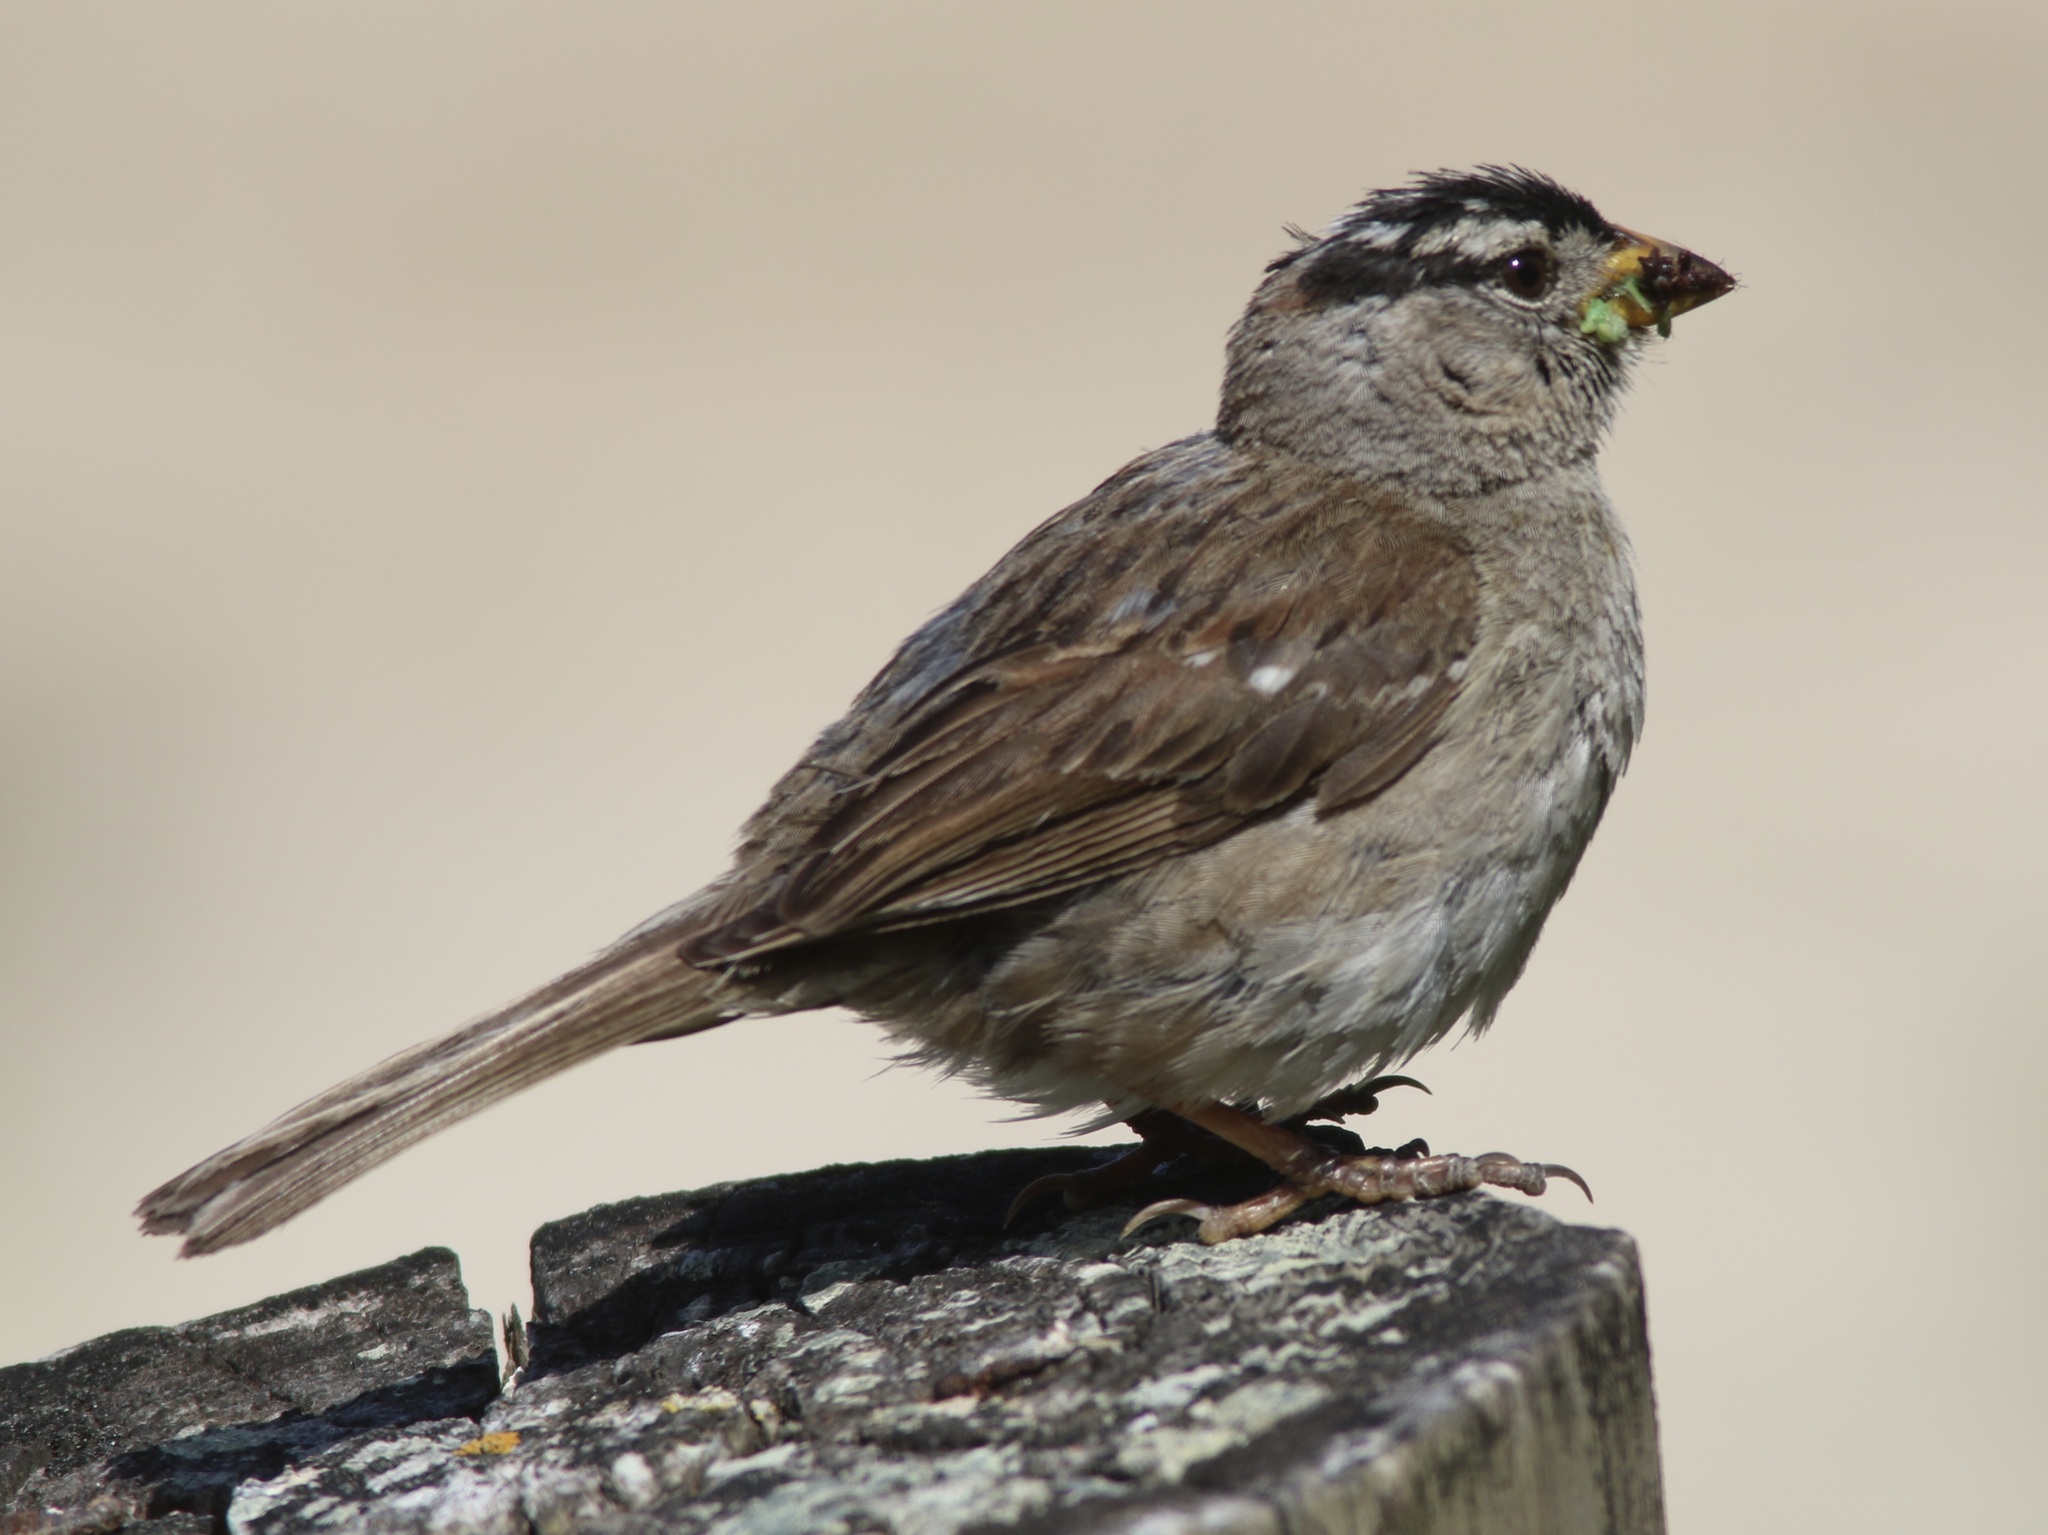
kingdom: Animalia
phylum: Chordata
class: Aves
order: Passeriformes
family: Passerellidae
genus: Zonotrichia
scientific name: Zonotrichia leucophrys
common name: White-crowned sparrow
